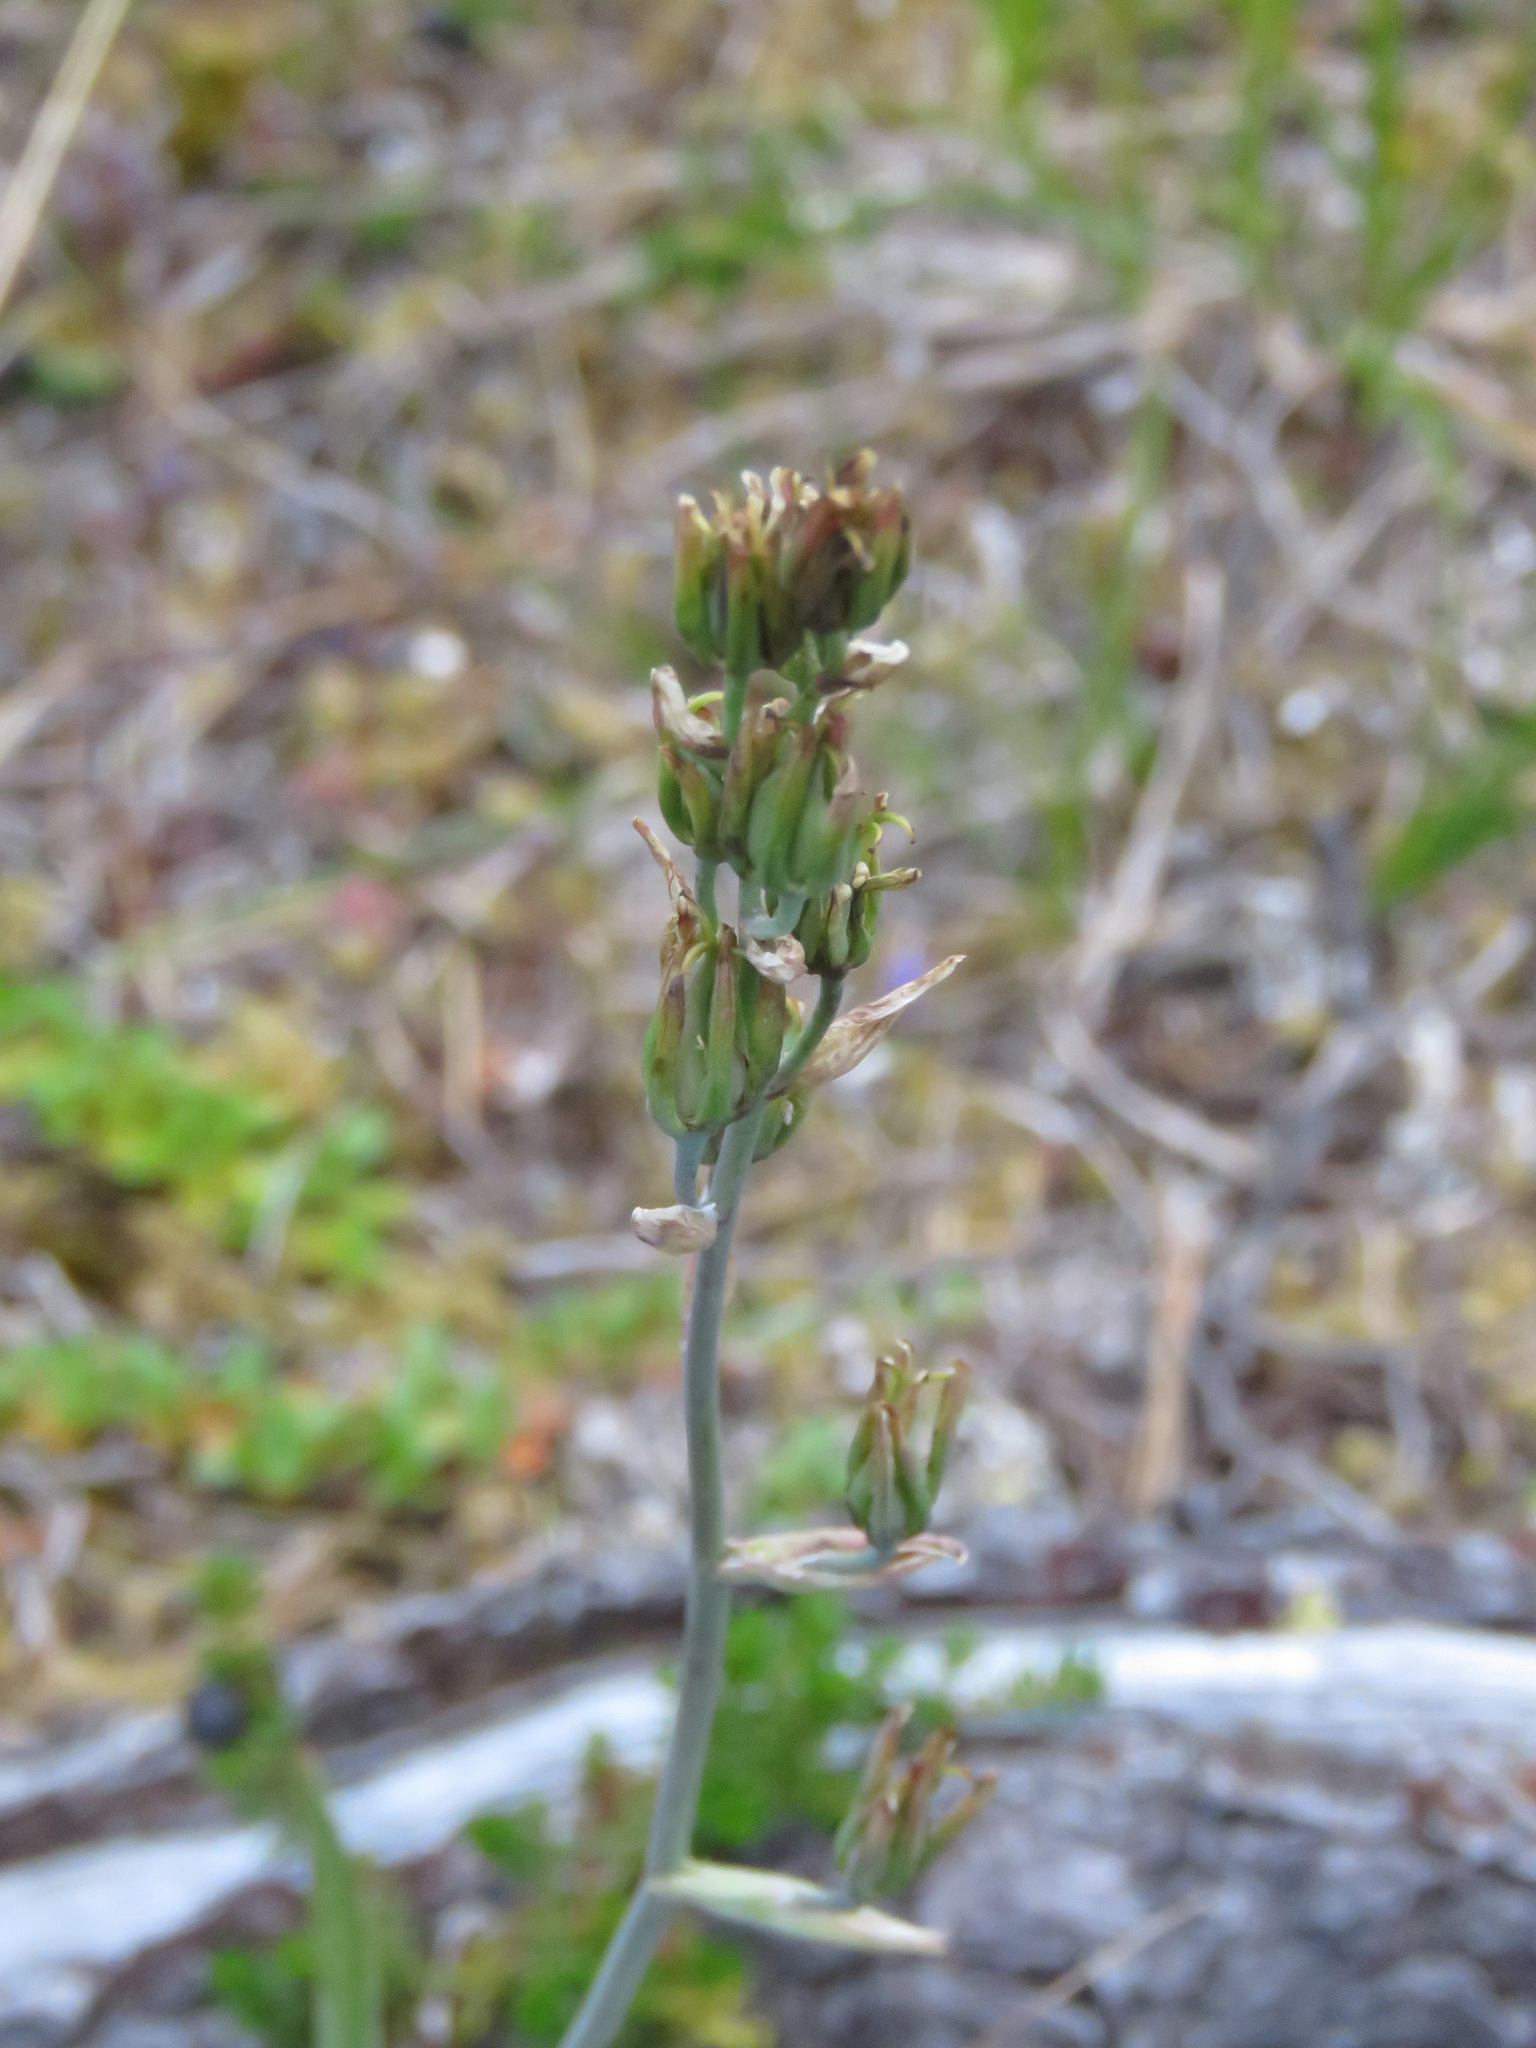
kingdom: Plantae
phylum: Tracheophyta
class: Liliopsida
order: Liliales
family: Melanthiaceae
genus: Anticlea
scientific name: Anticlea elegans
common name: Mountain death camas
